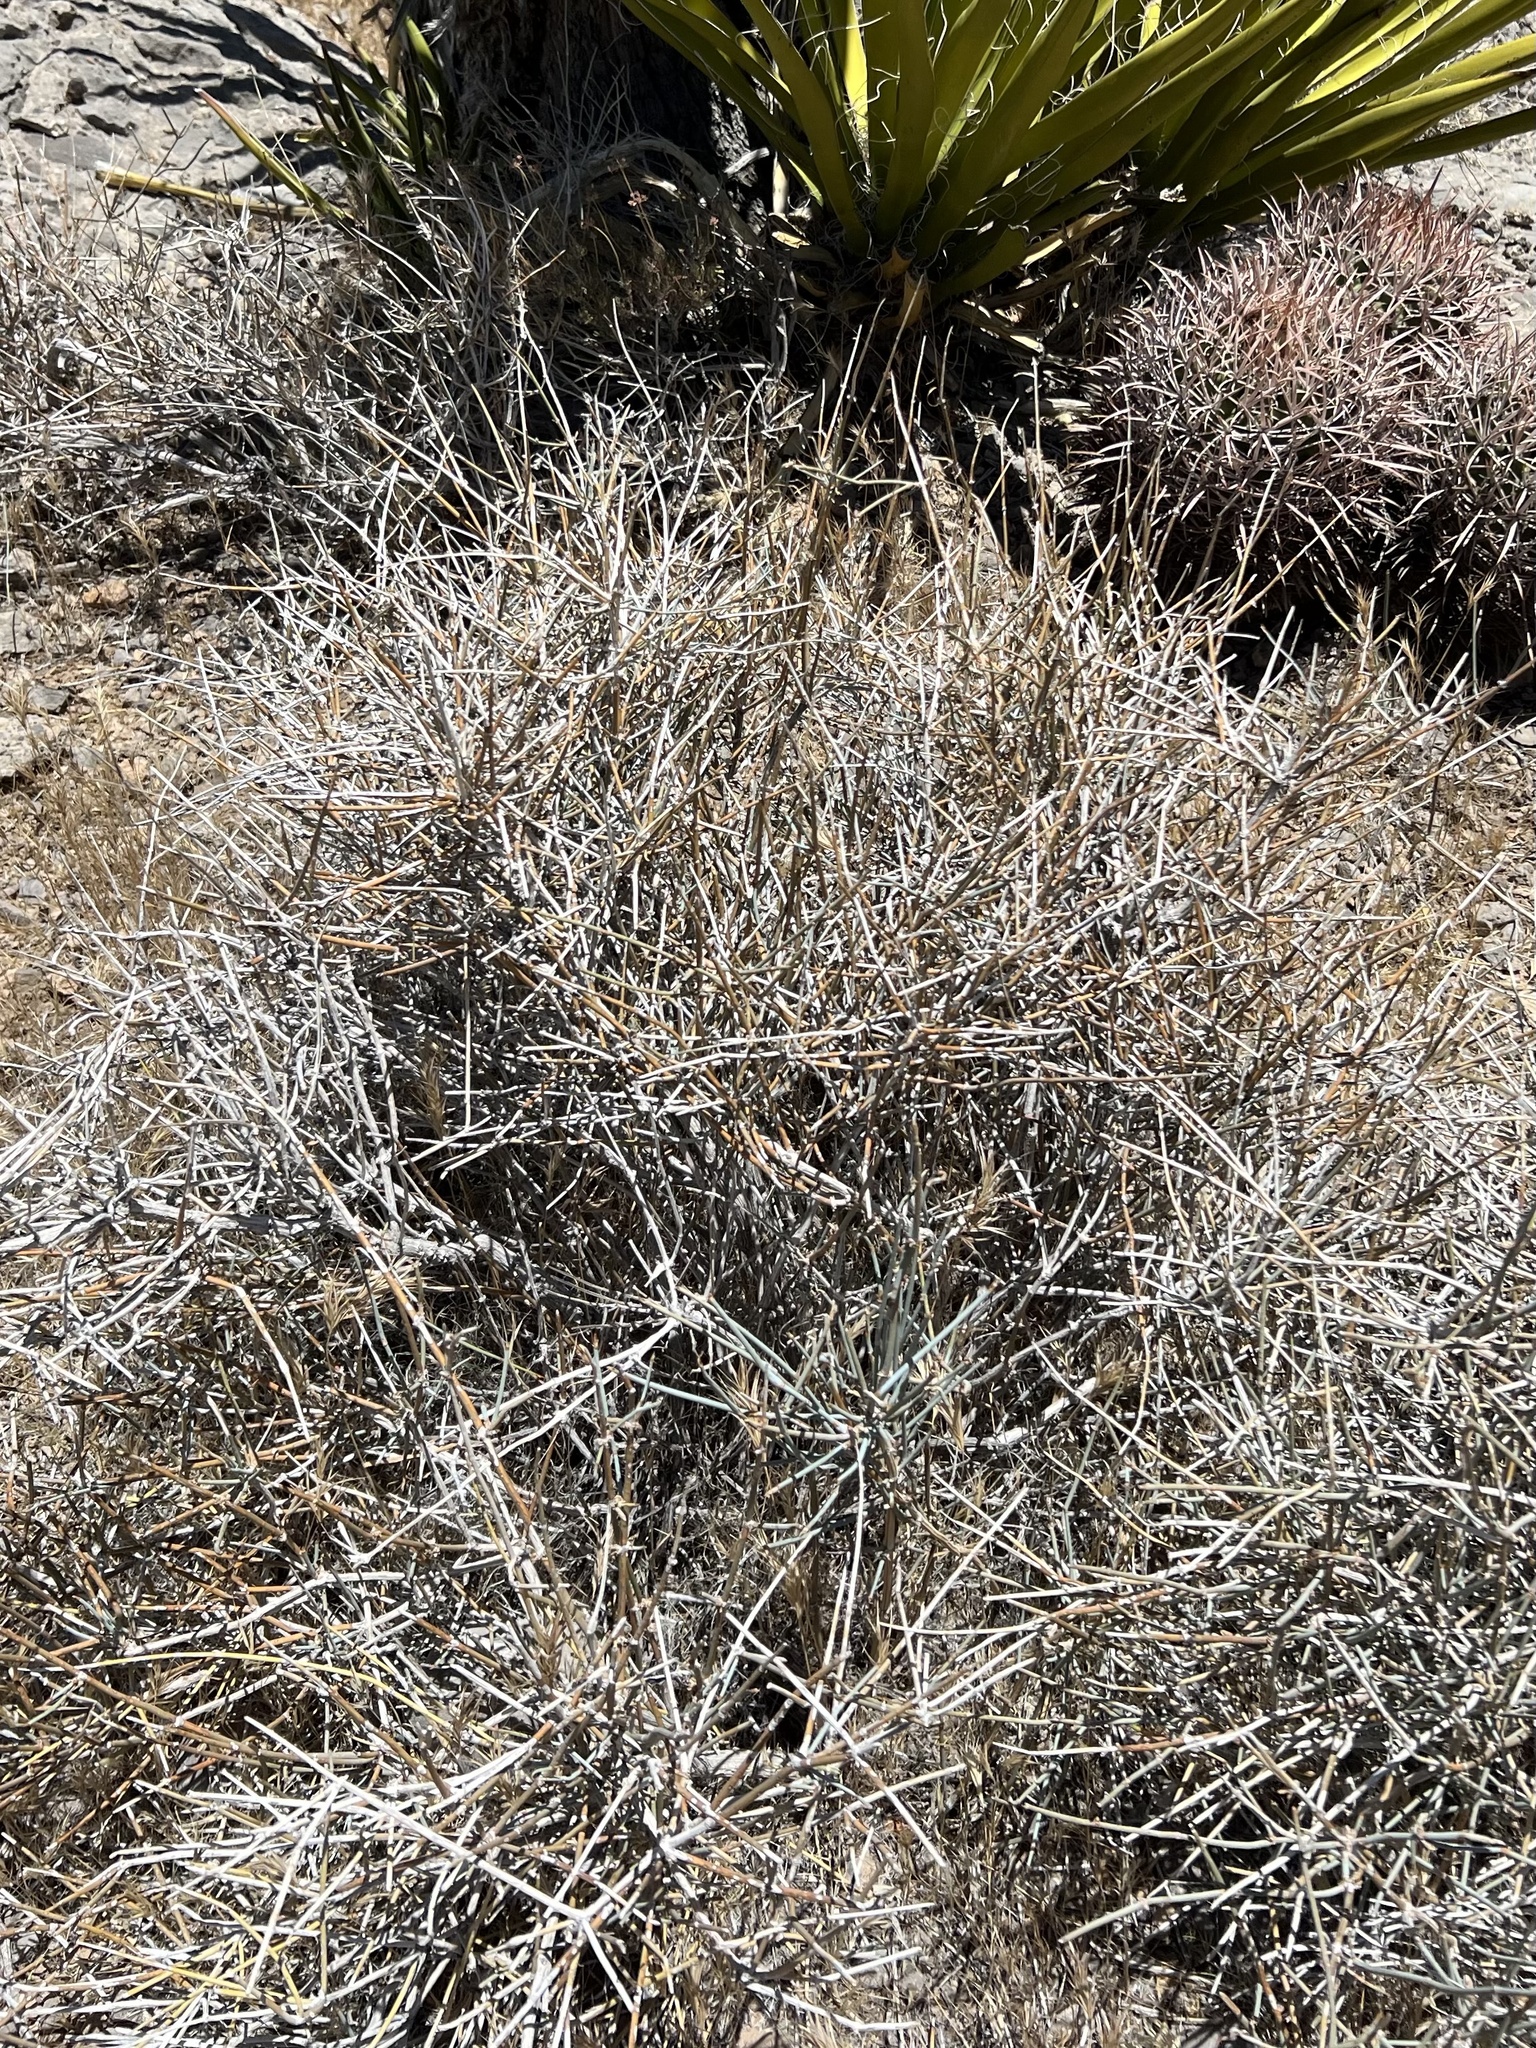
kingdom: Plantae
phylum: Tracheophyta
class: Gnetopsida
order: Ephedrales
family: Ephedraceae
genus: Ephedra
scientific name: Ephedra nevadensis
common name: Gray ephedra
